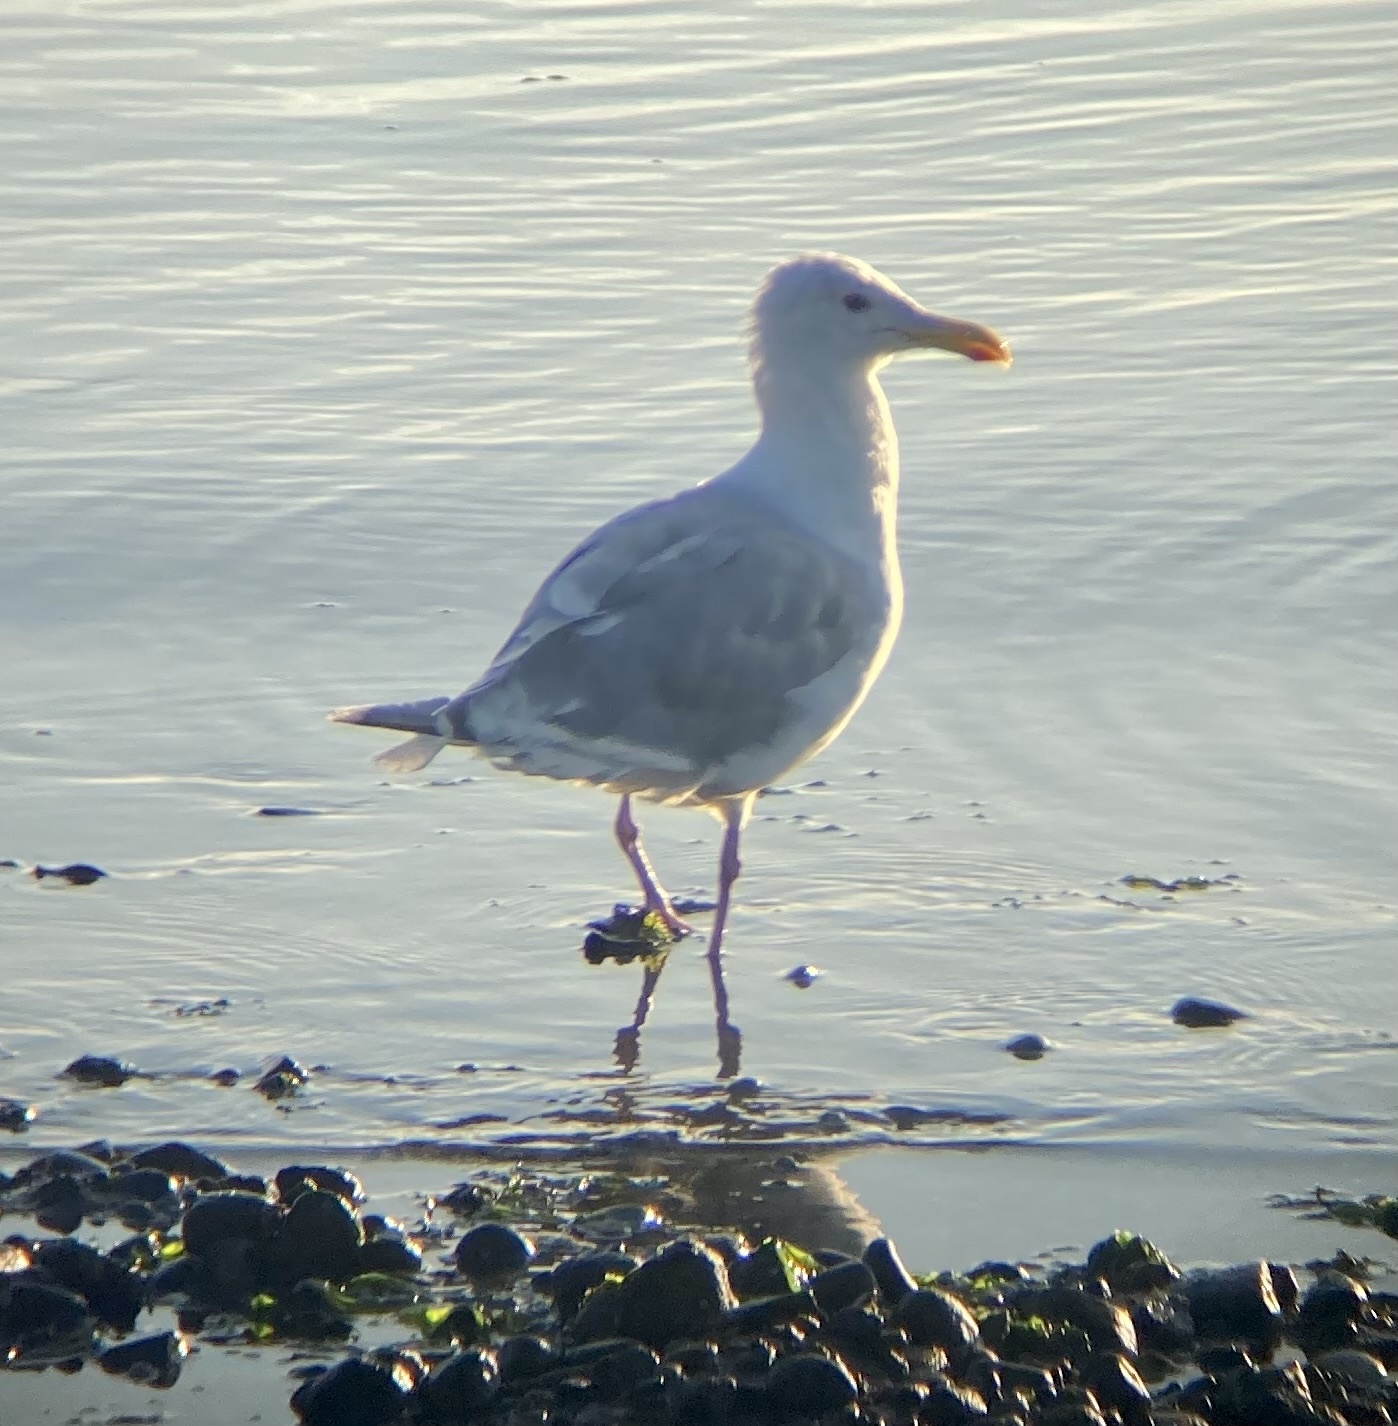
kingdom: Animalia
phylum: Chordata
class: Aves
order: Charadriiformes
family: Laridae
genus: Larus
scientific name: Larus glaucescens
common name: Glaucous-winged gull
